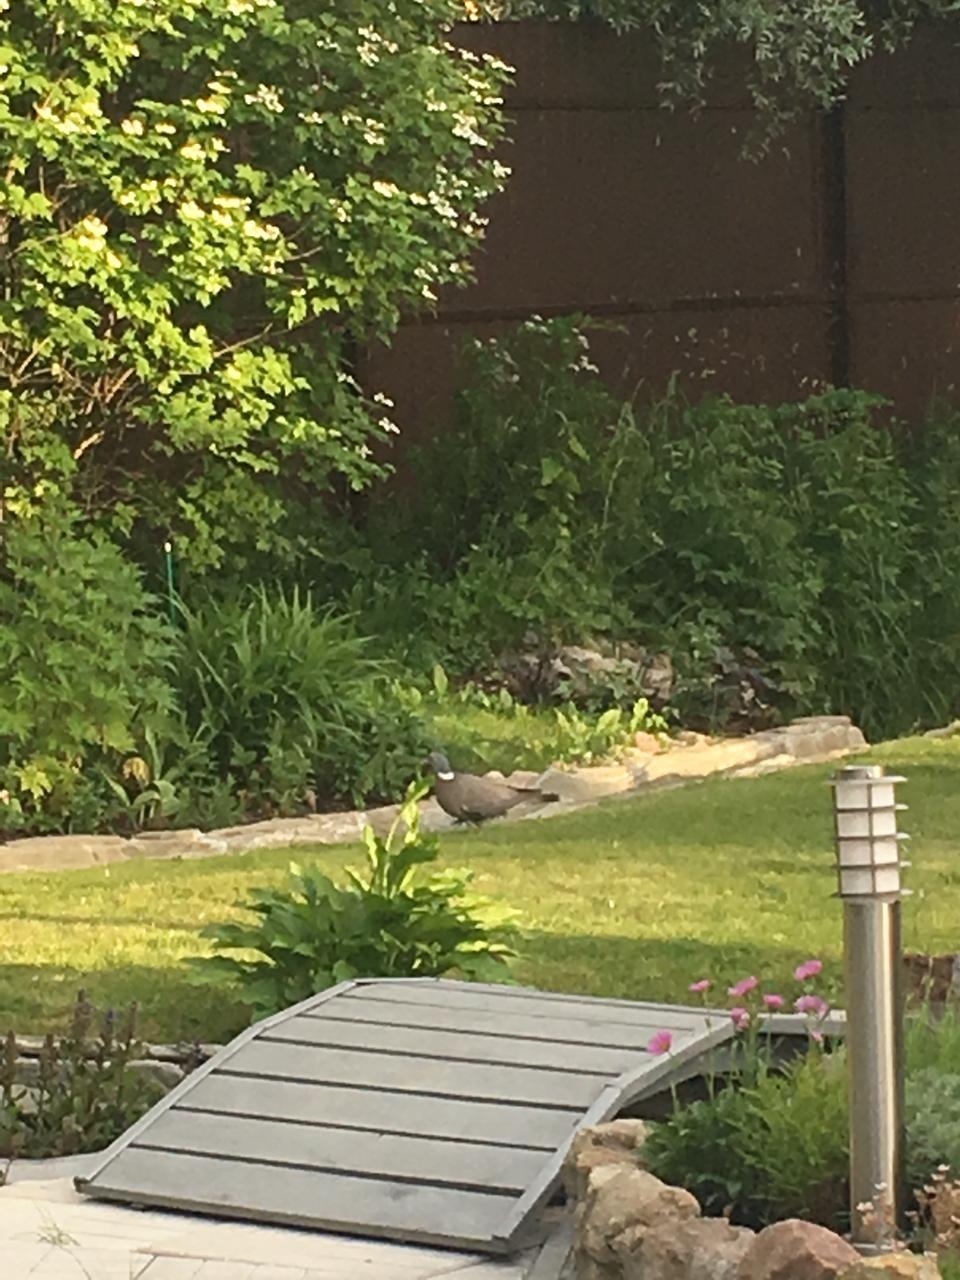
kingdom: Animalia
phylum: Chordata
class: Aves
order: Columbiformes
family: Columbidae
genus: Columba
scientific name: Columba palumbus
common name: Common wood pigeon
